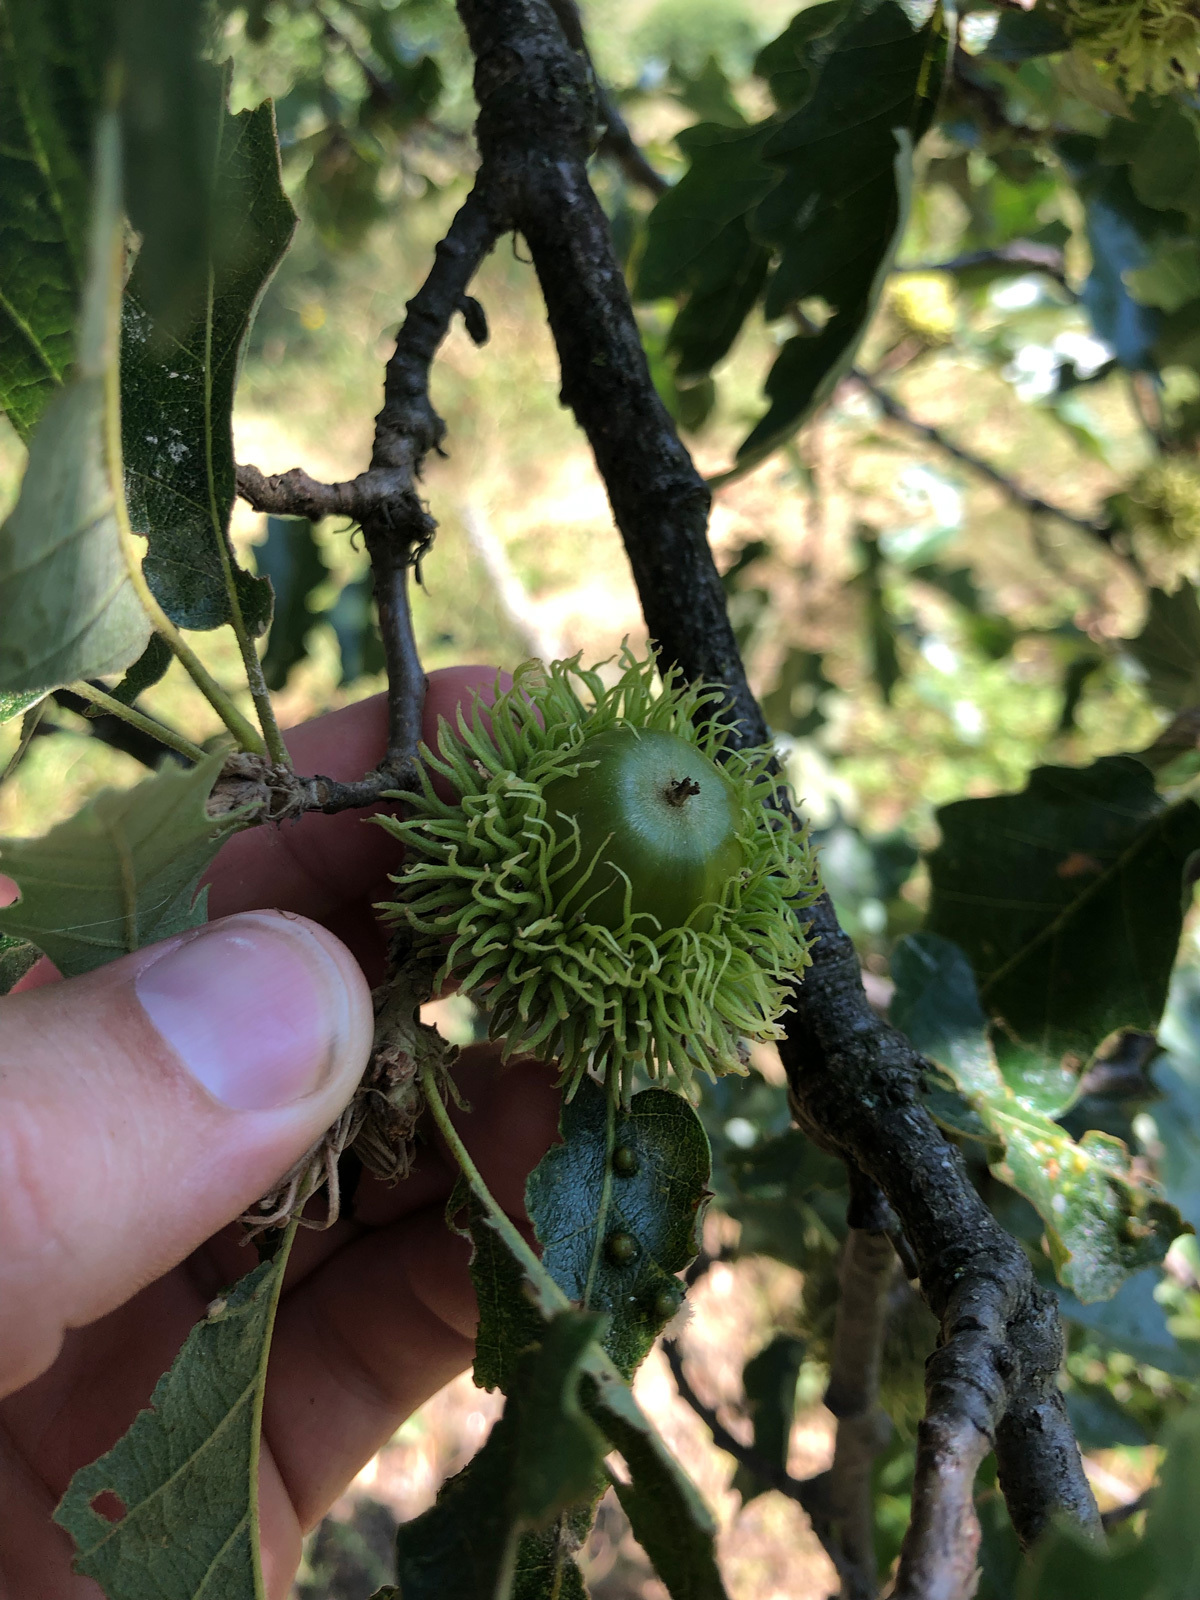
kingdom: Plantae
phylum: Tracheophyta
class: Magnoliopsida
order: Fagales
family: Fagaceae
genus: Quercus
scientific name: Quercus cerris
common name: Turkey oak
